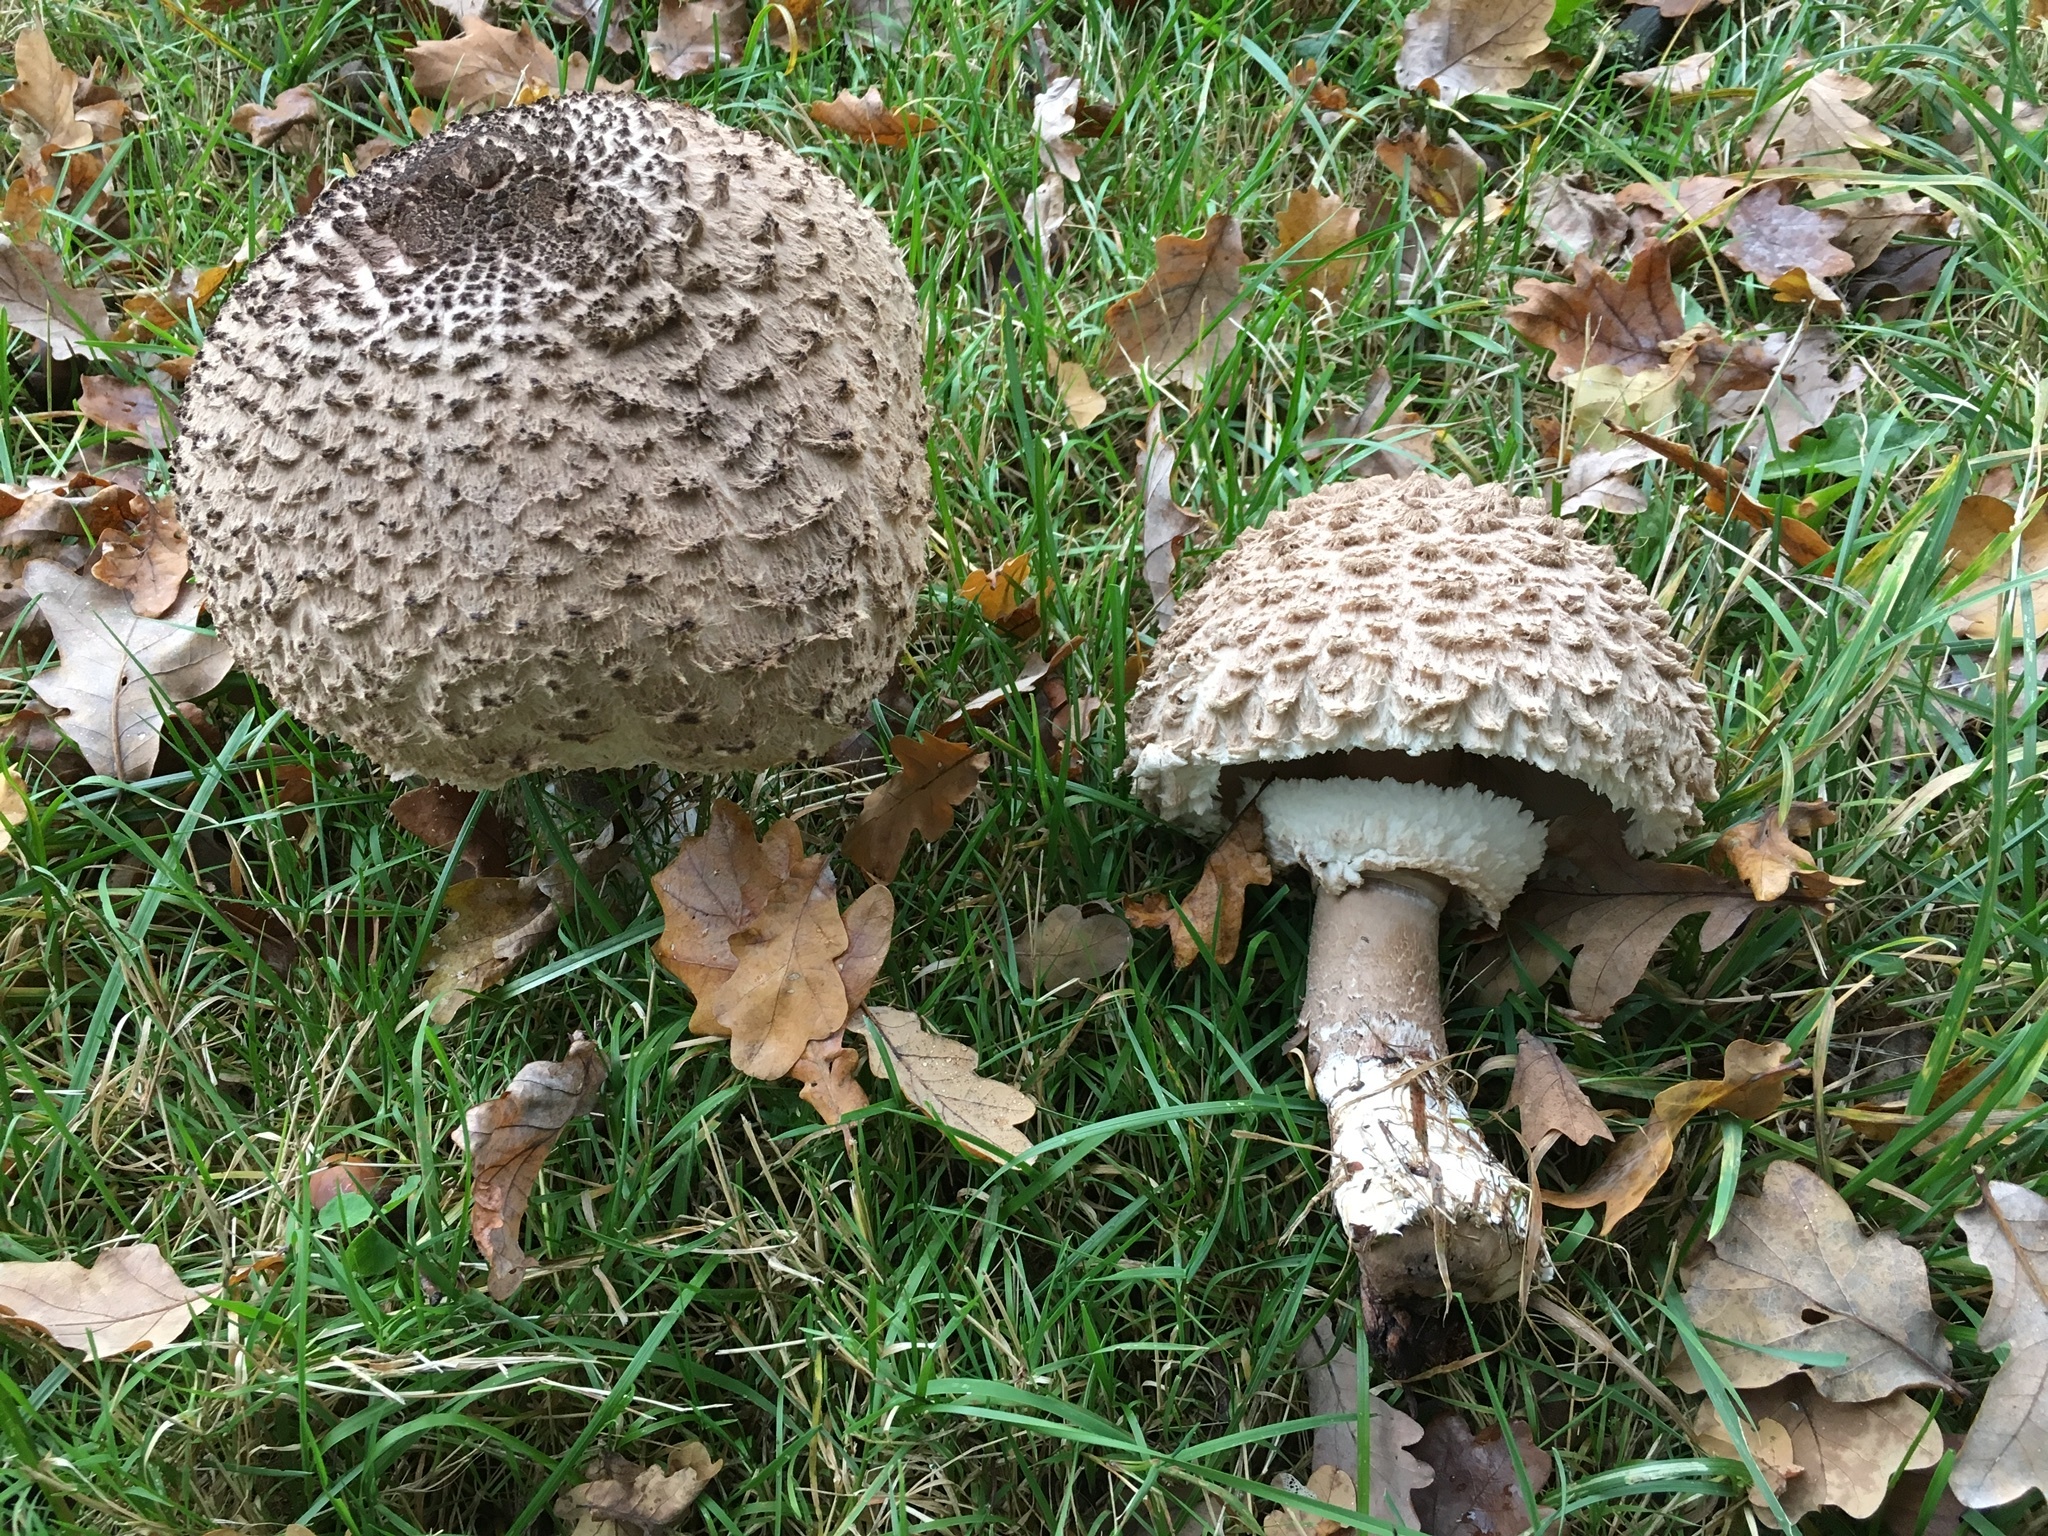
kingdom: Fungi
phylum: Basidiomycota
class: Agaricomycetes
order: Agaricales
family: Agaricaceae
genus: Macrolepiota
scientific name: Macrolepiota procera
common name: Parasol
